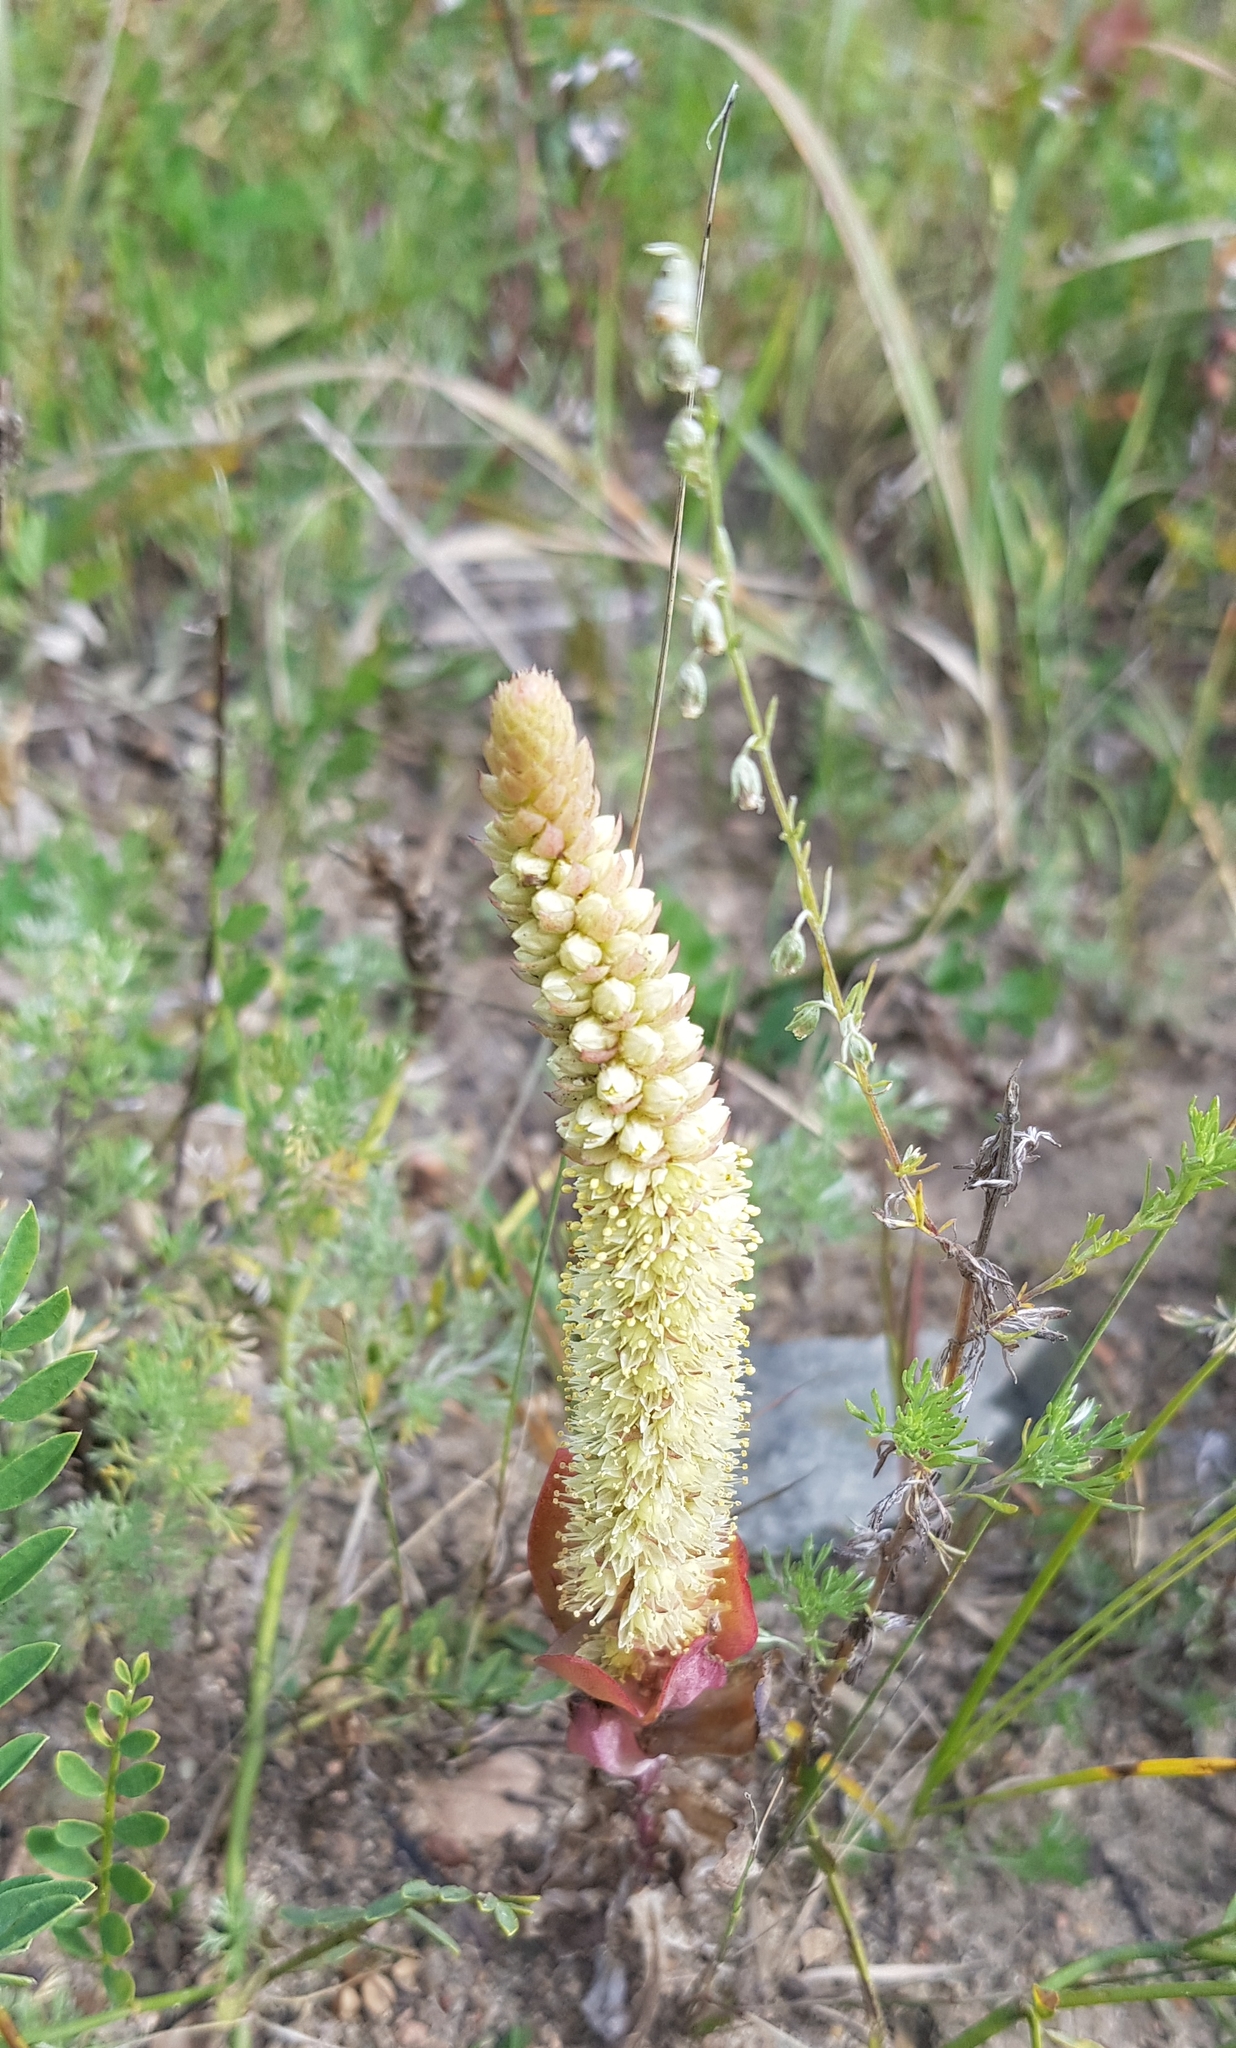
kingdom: Plantae
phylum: Tracheophyta
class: Magnoliopsida
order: Saxifragales
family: Crassulaceae
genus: Orostachys
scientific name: Orostachys malacophylla
